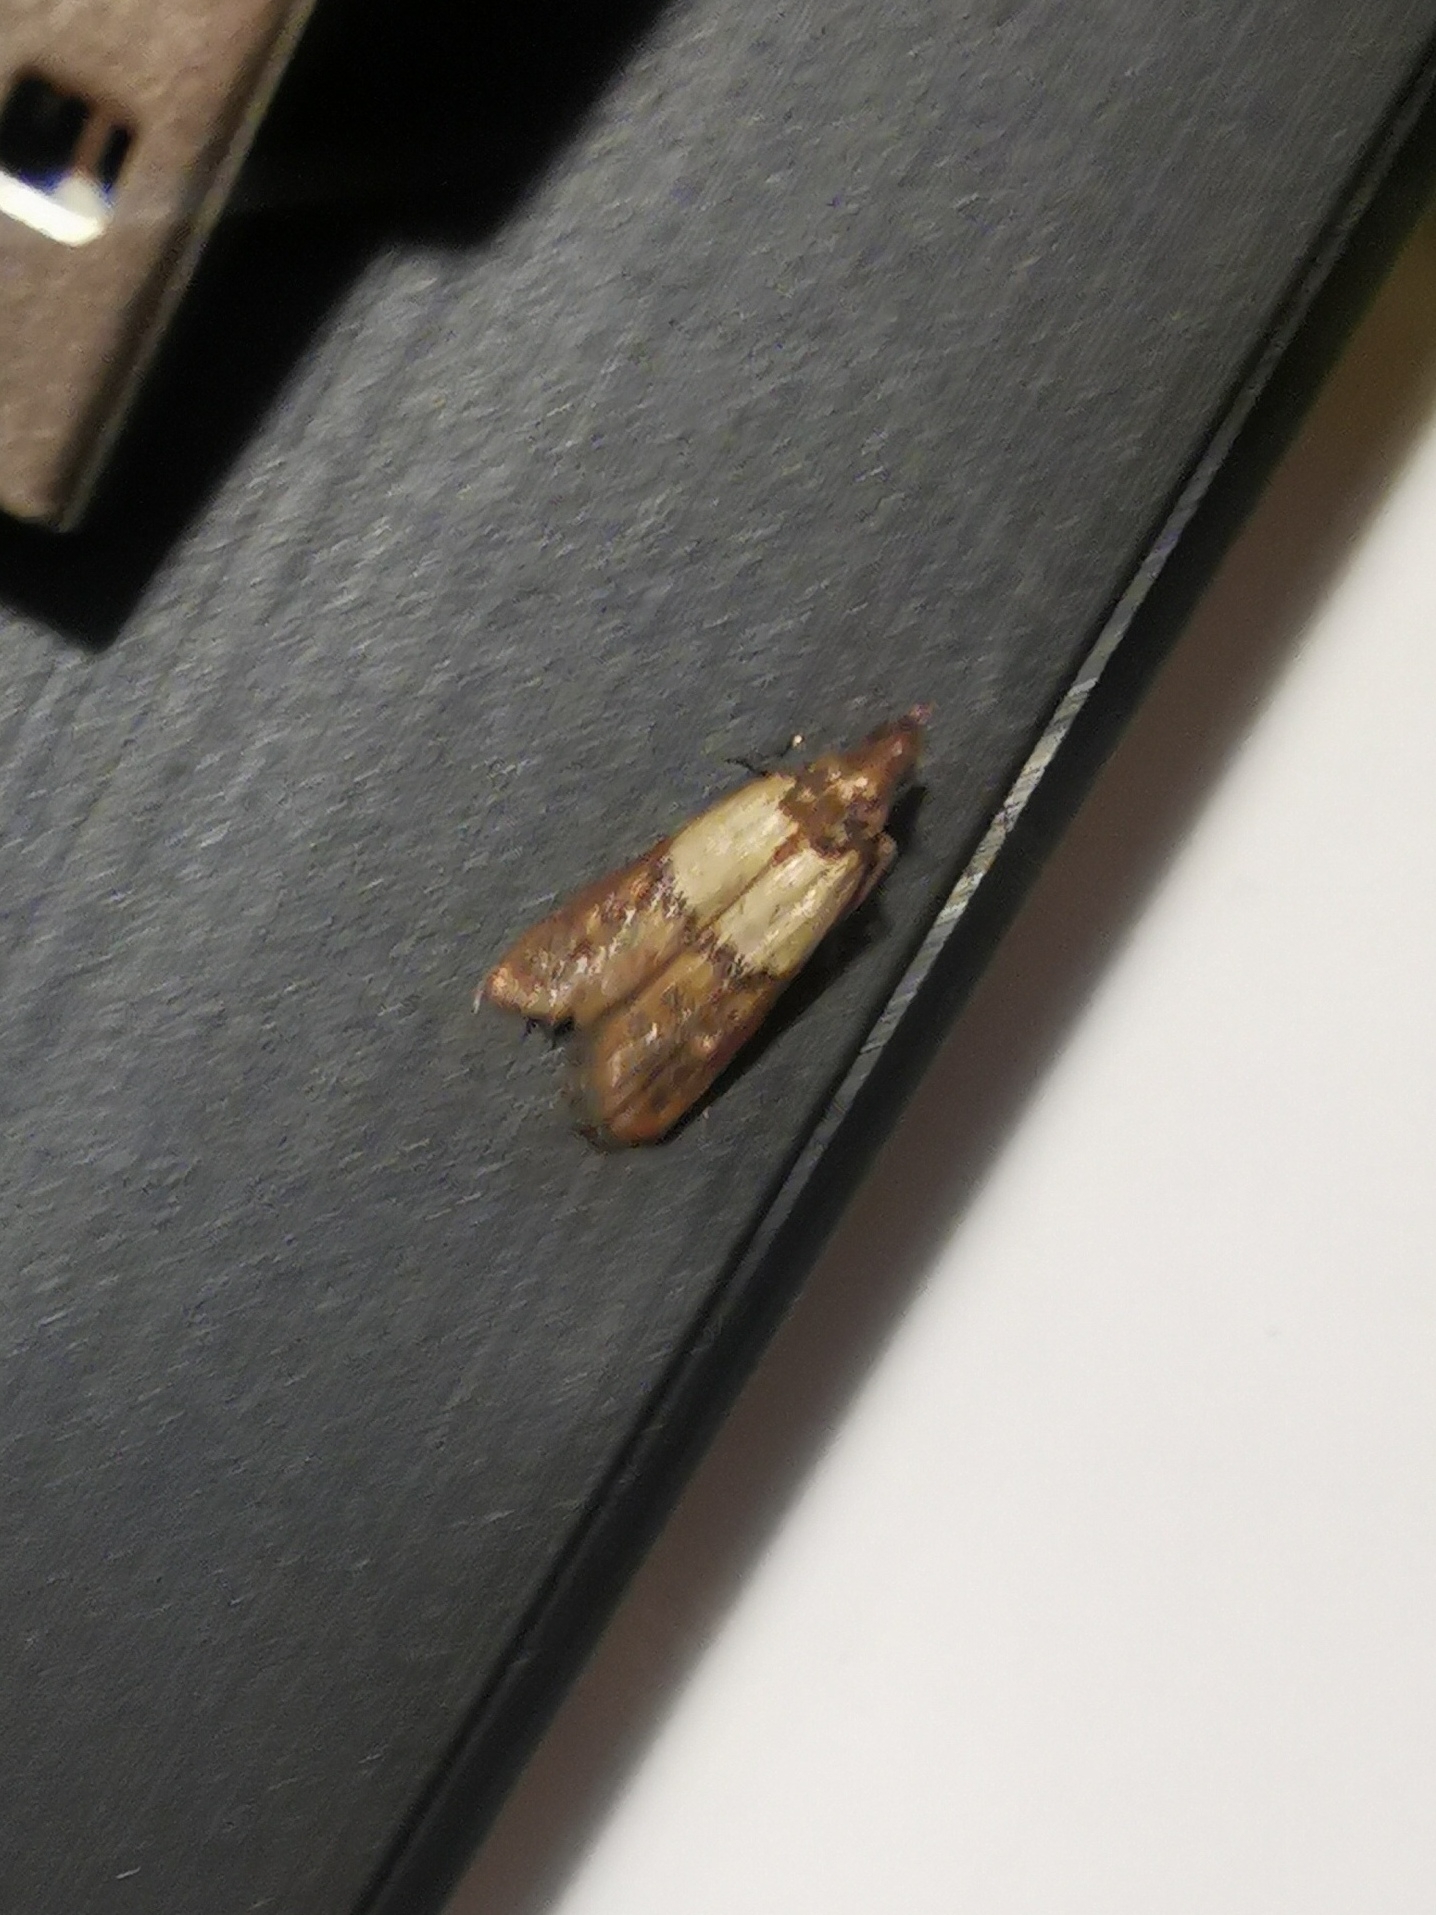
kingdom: Animalia
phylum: Arthropoda
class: Insecta
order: Lepidoptera
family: Pyralidae
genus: Plodia
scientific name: Plodia interpunctella
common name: Indian meal moth
